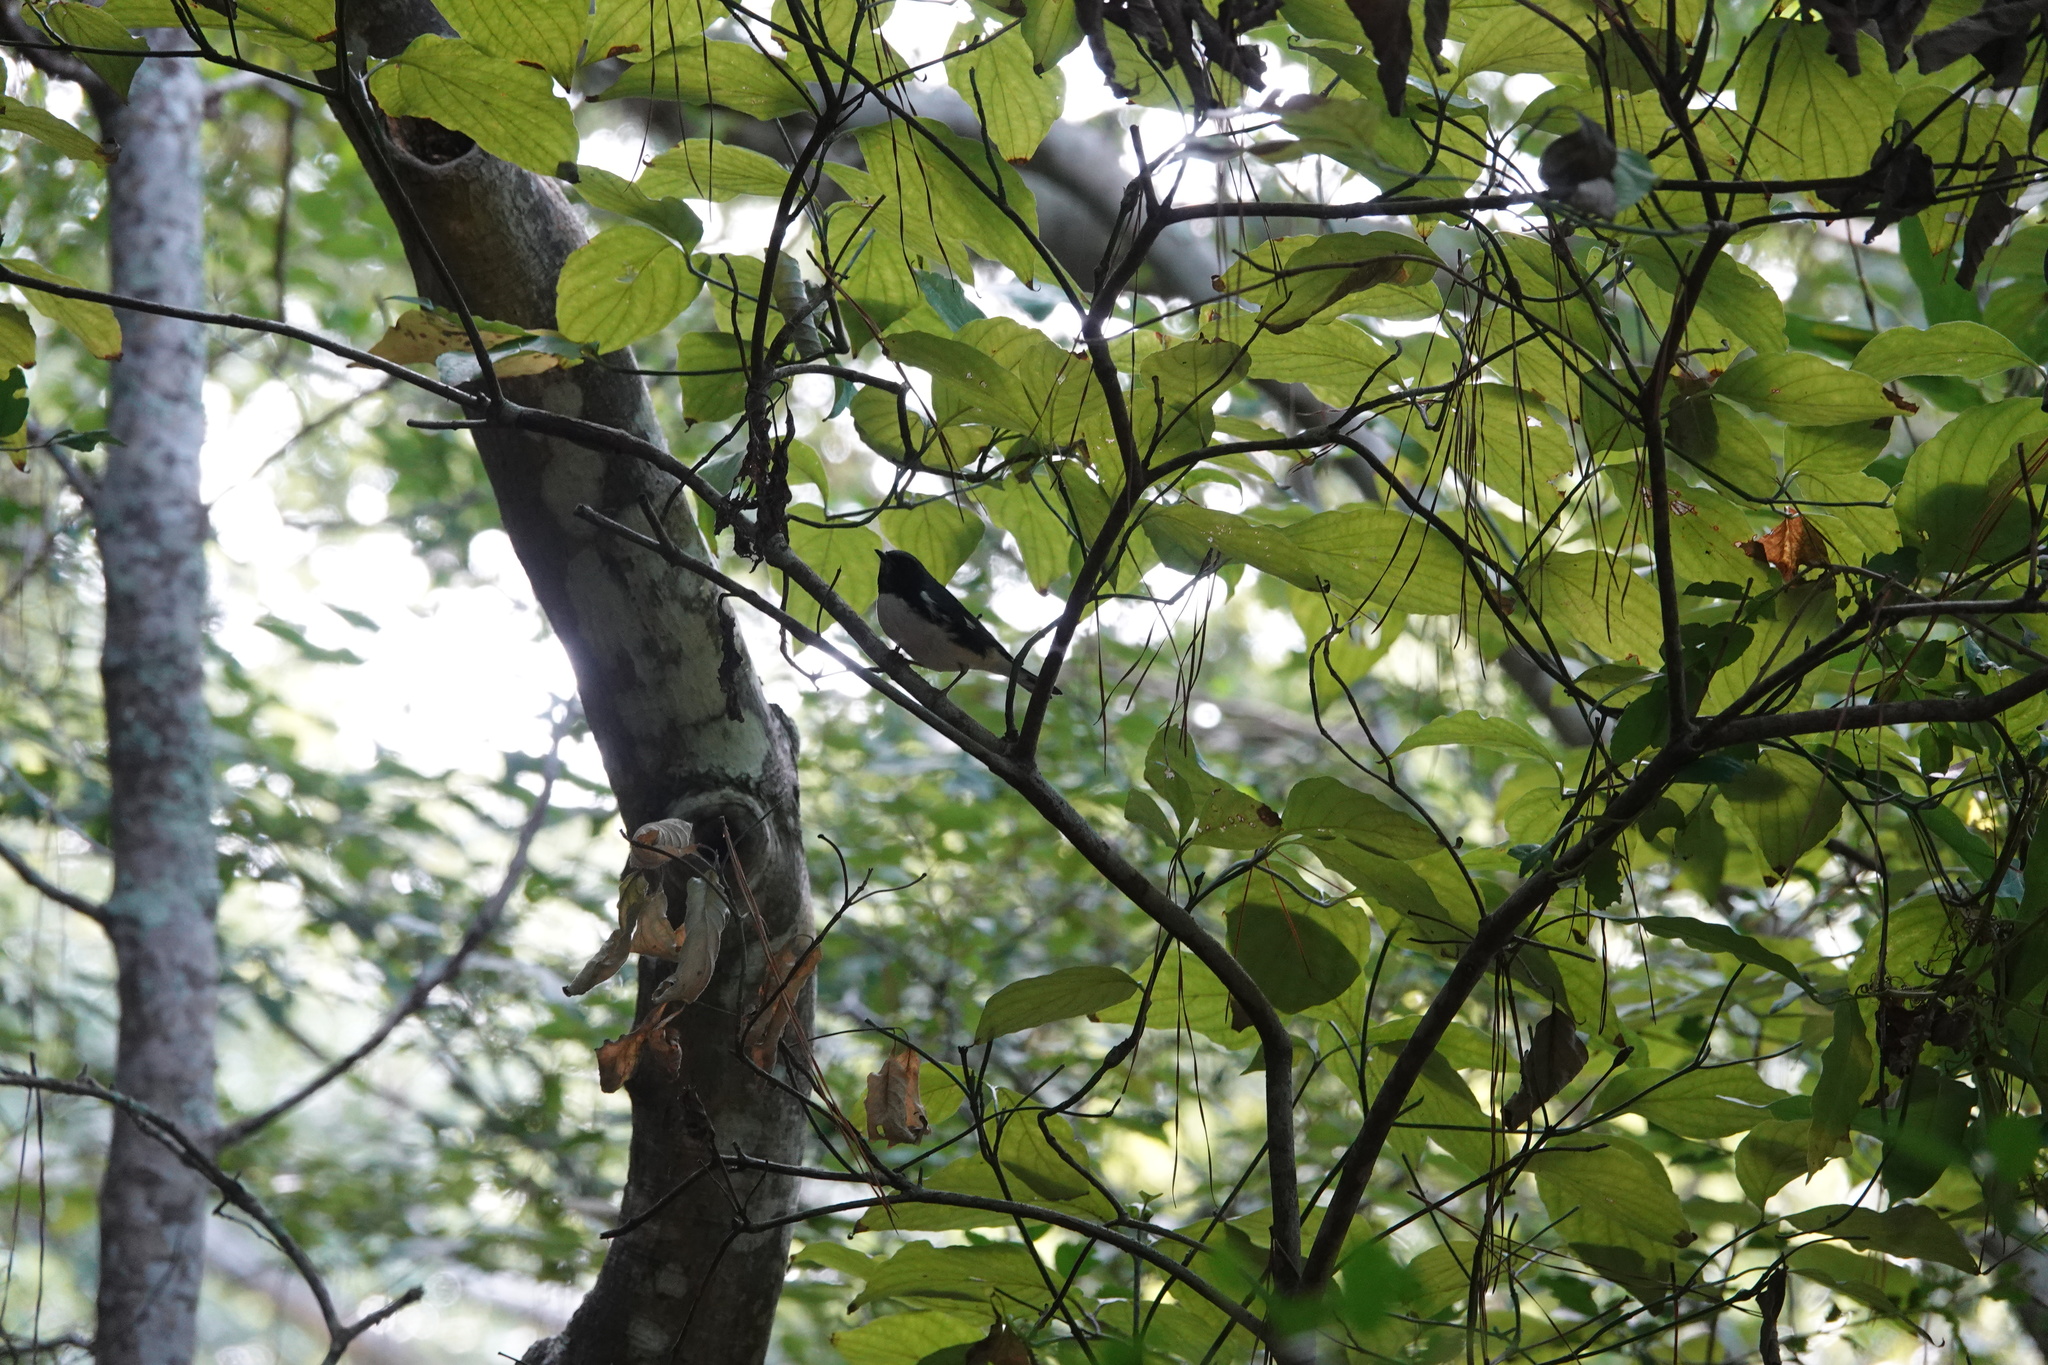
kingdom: Animalia
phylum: Chordata
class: Aves
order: Passeriformes
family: Parulidae
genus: Setophaga
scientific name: Setophaga caerulescens
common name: Black-throated blue warbler
